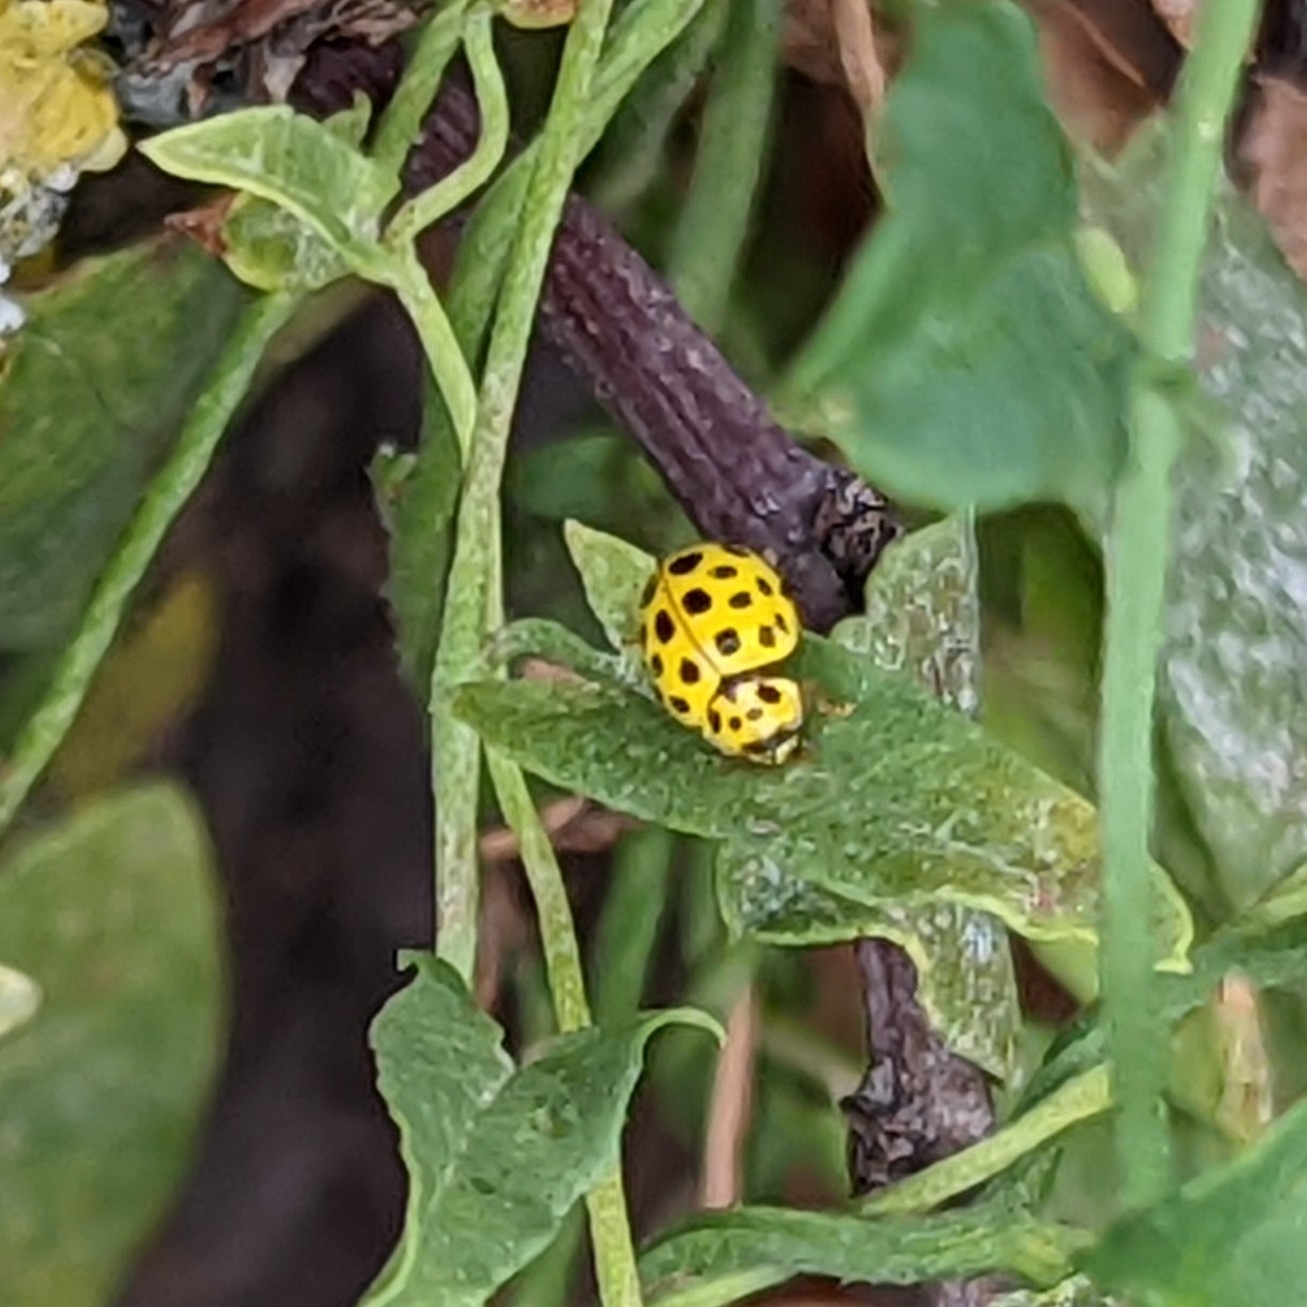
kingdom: Animalia
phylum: Arthropoda
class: Insecta
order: Coleoptera
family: Coccinellidae
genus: Psyllobora
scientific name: Psyllobora vigintiduopunctata
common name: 22-spot ladybird
